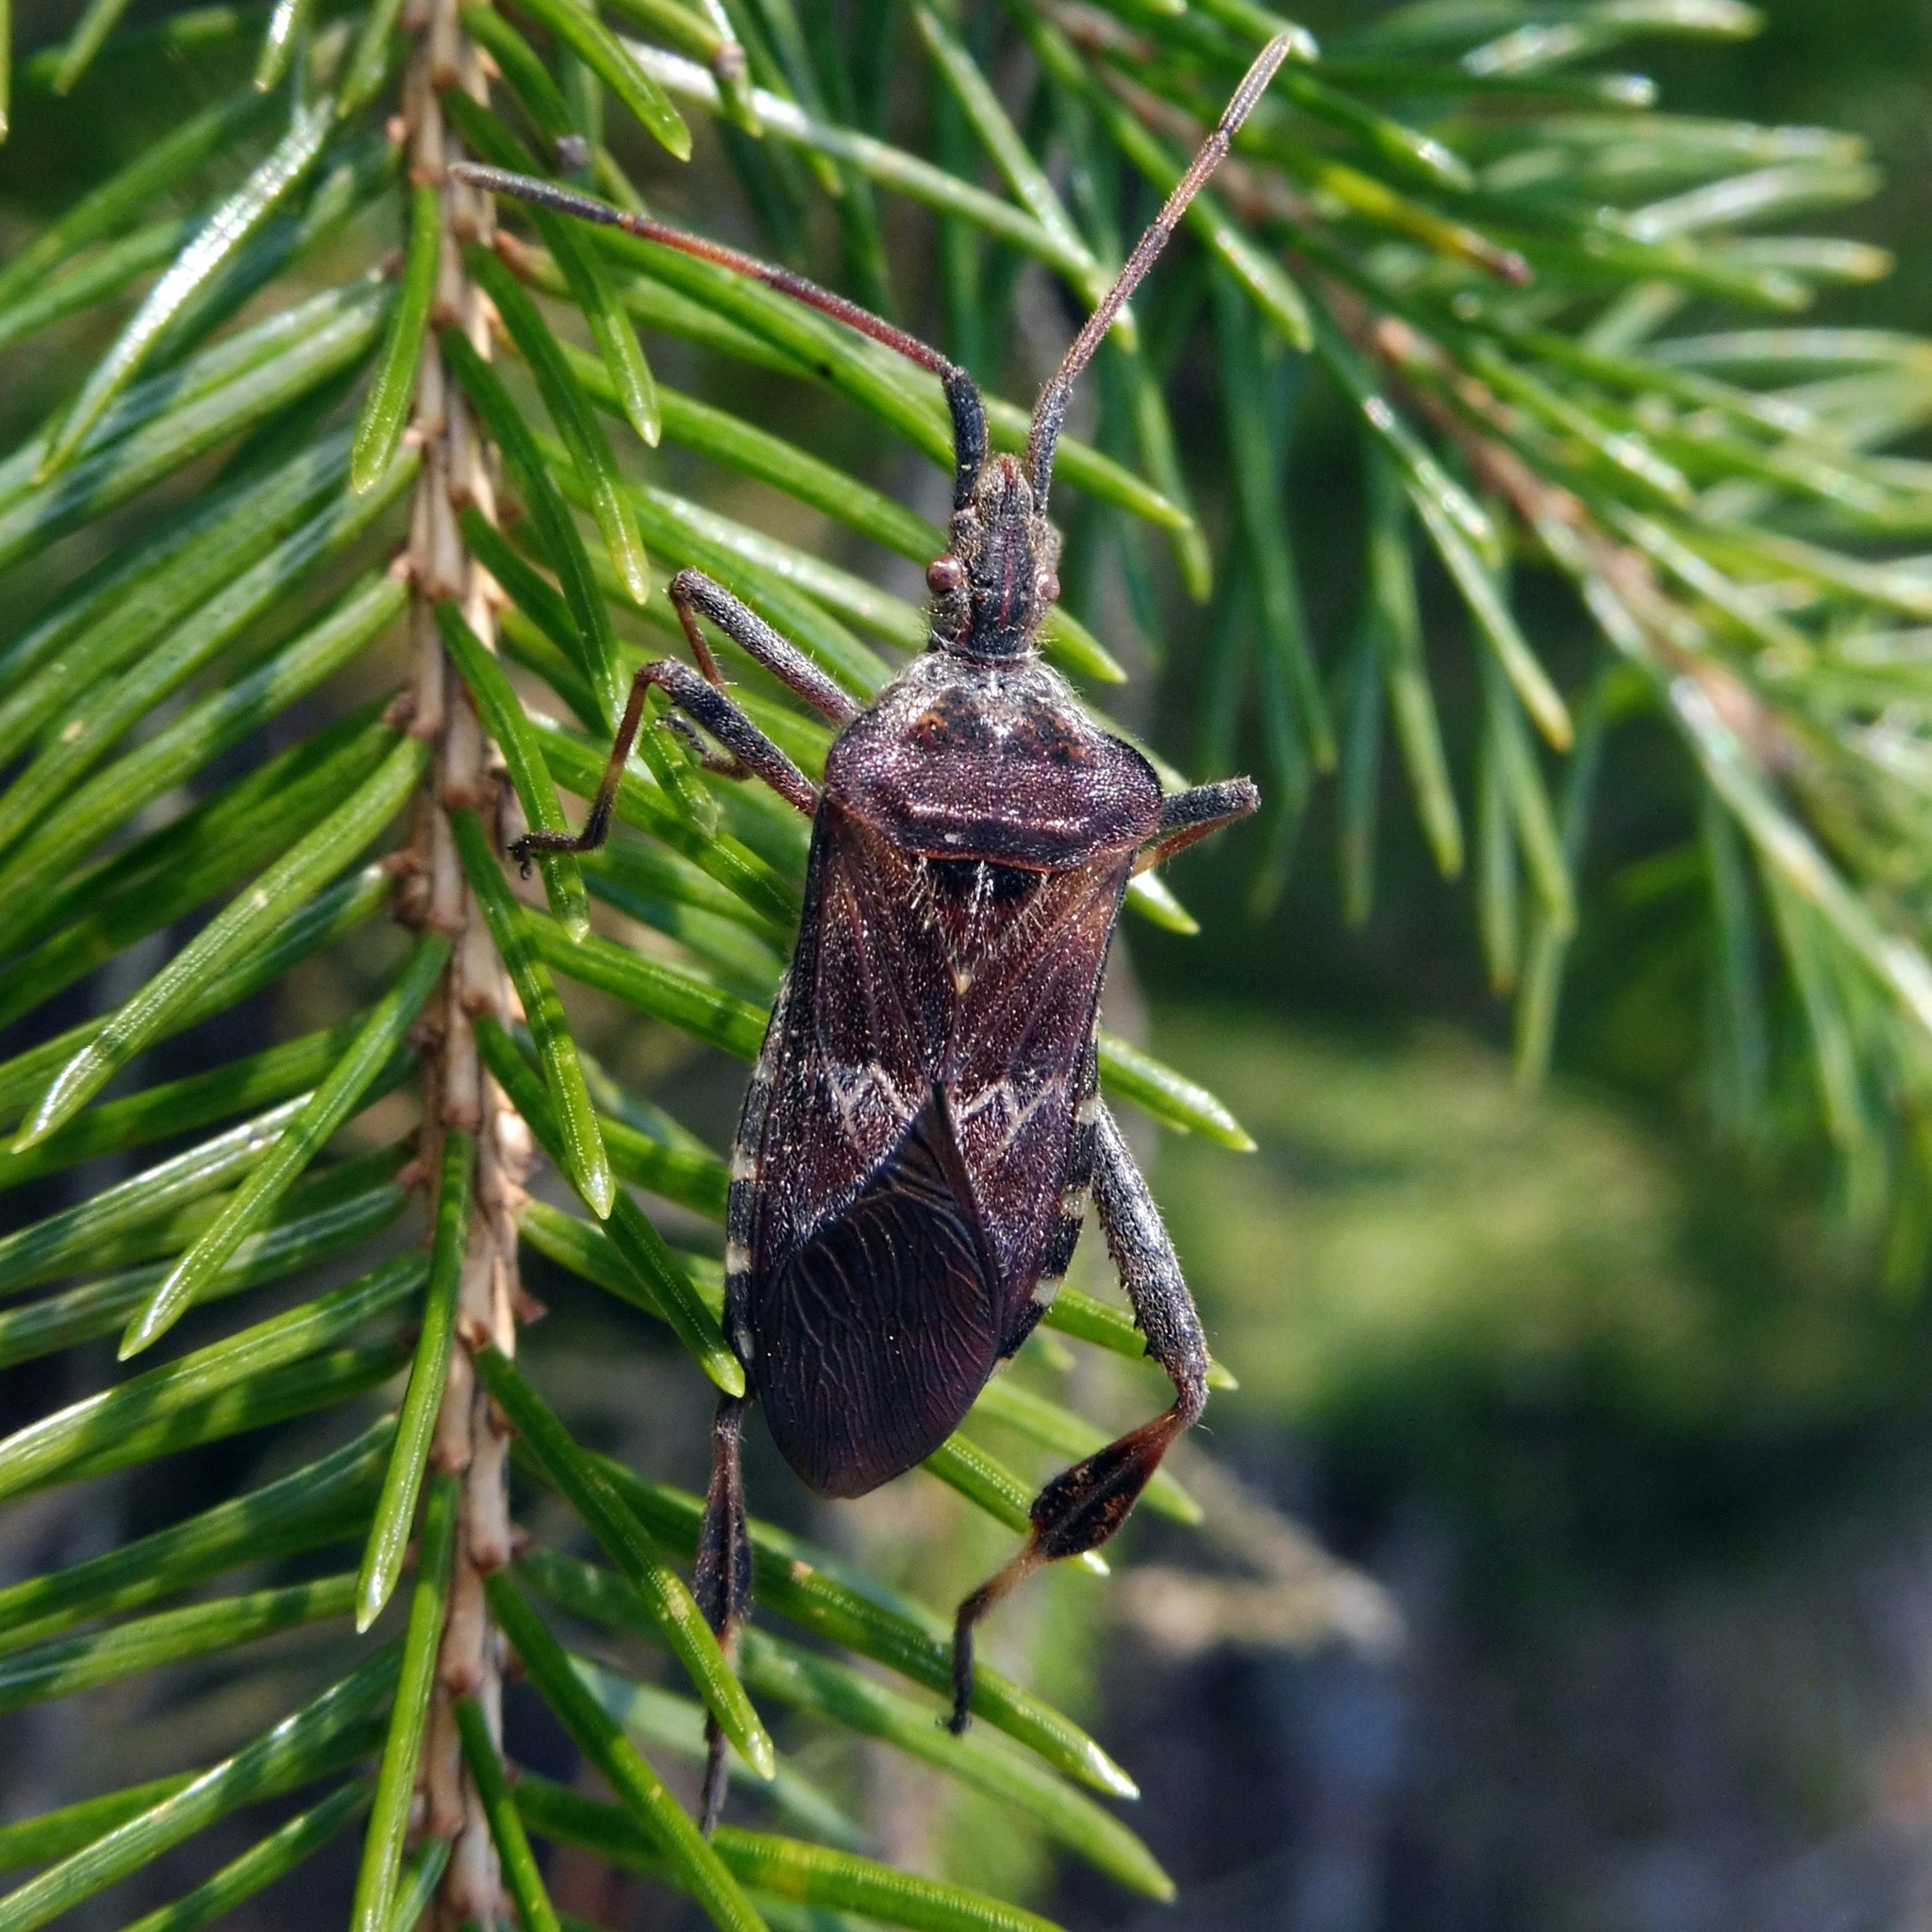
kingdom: Animalia
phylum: Arthropoda
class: Insecta
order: Hemiptera
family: Coreidae
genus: Leptoglossus
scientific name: Leptoglossus occidentalis
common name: Western conifer-seed bug
